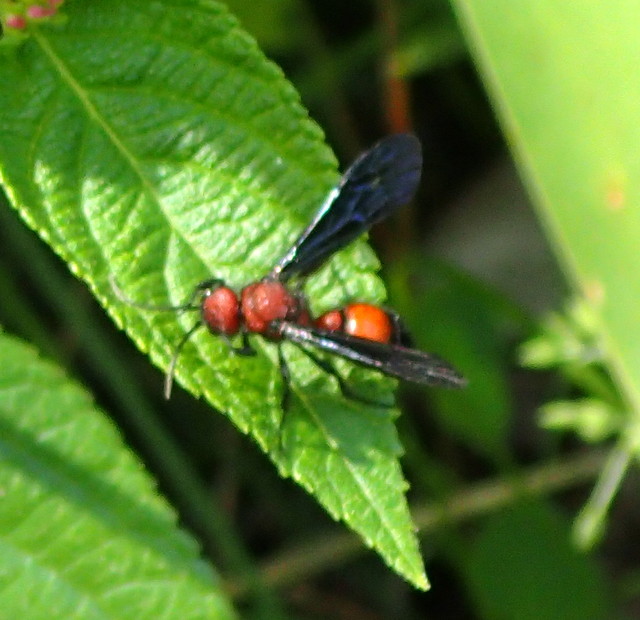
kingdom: Animalia
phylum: Arthropoda
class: Insecta
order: Hymenoptera
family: Mutillidae
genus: Sphaeropthalma
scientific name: Sphaeropthalma
